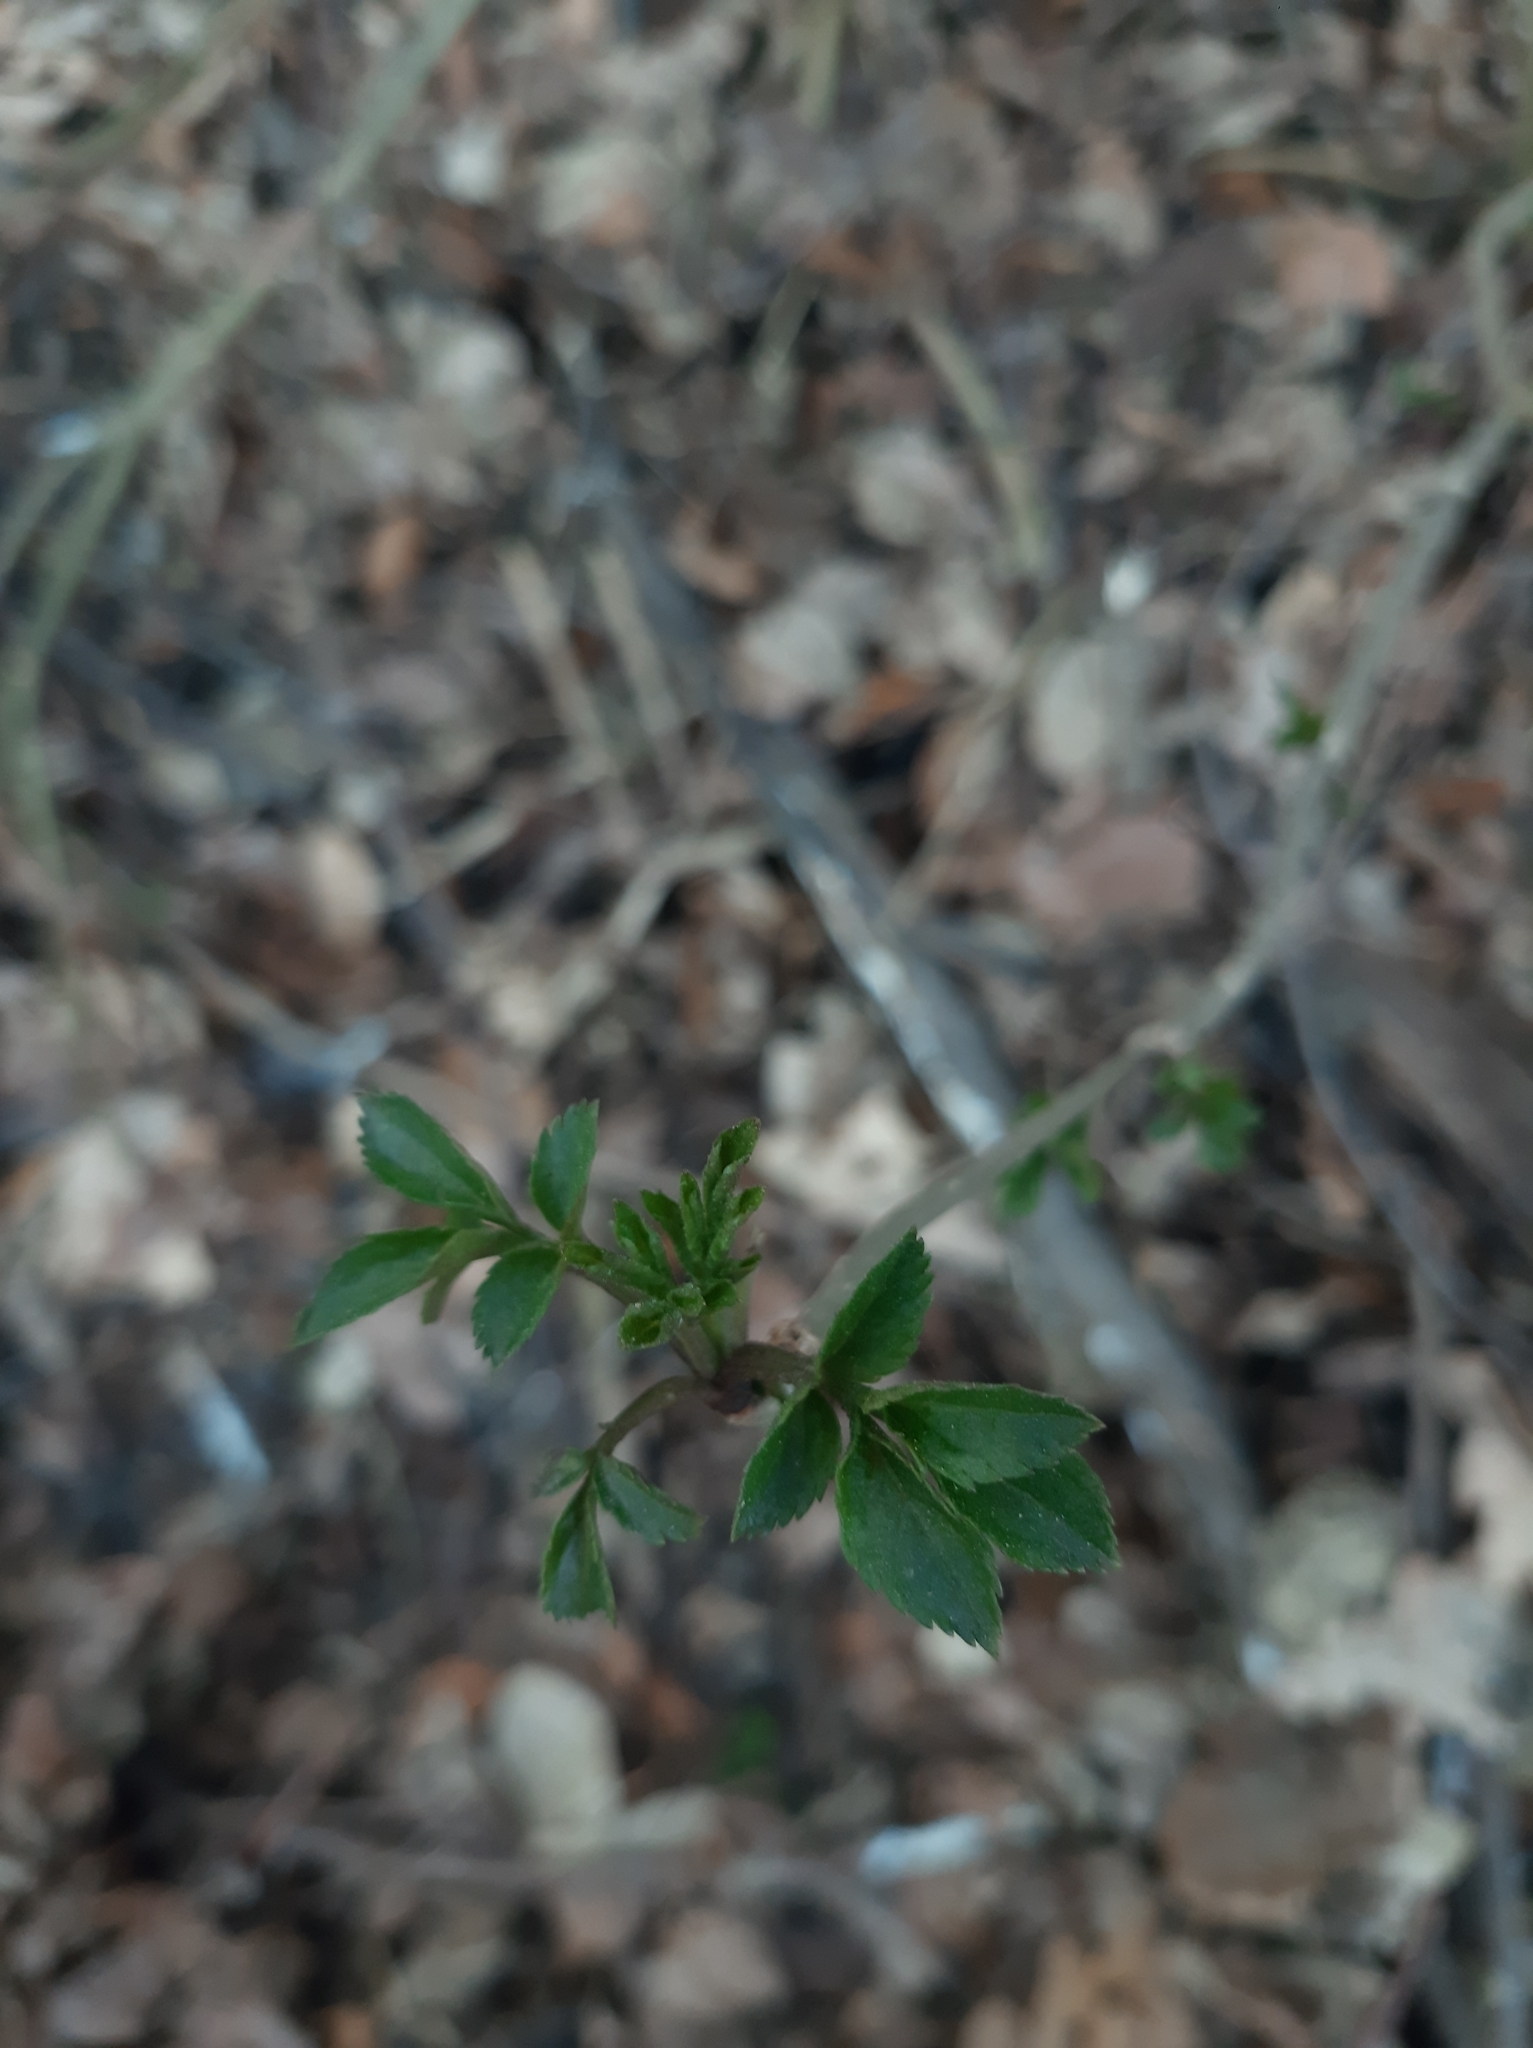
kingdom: Plantae
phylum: Tracheophyta
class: Magnoliopsida
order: Dipsacales
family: Viburnaceae
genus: Sambucus
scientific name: Sambucus nigra
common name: Elder
